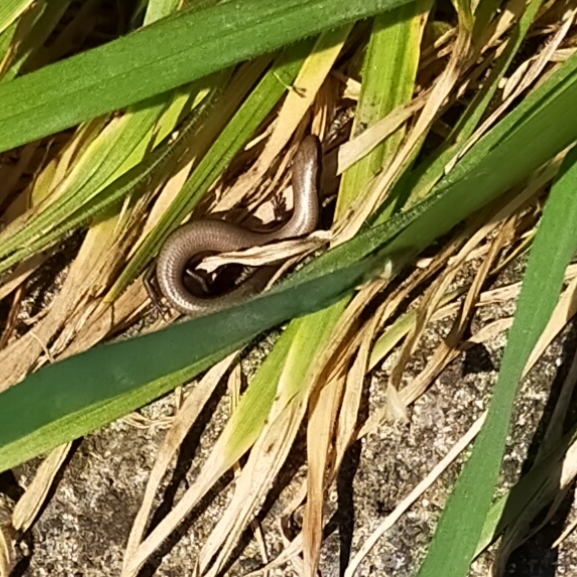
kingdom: Animalia
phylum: Chordata
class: Squamata
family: Scincidae
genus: Ablepharus
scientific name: Ablepharus kitaibelii
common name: Juniper skink
